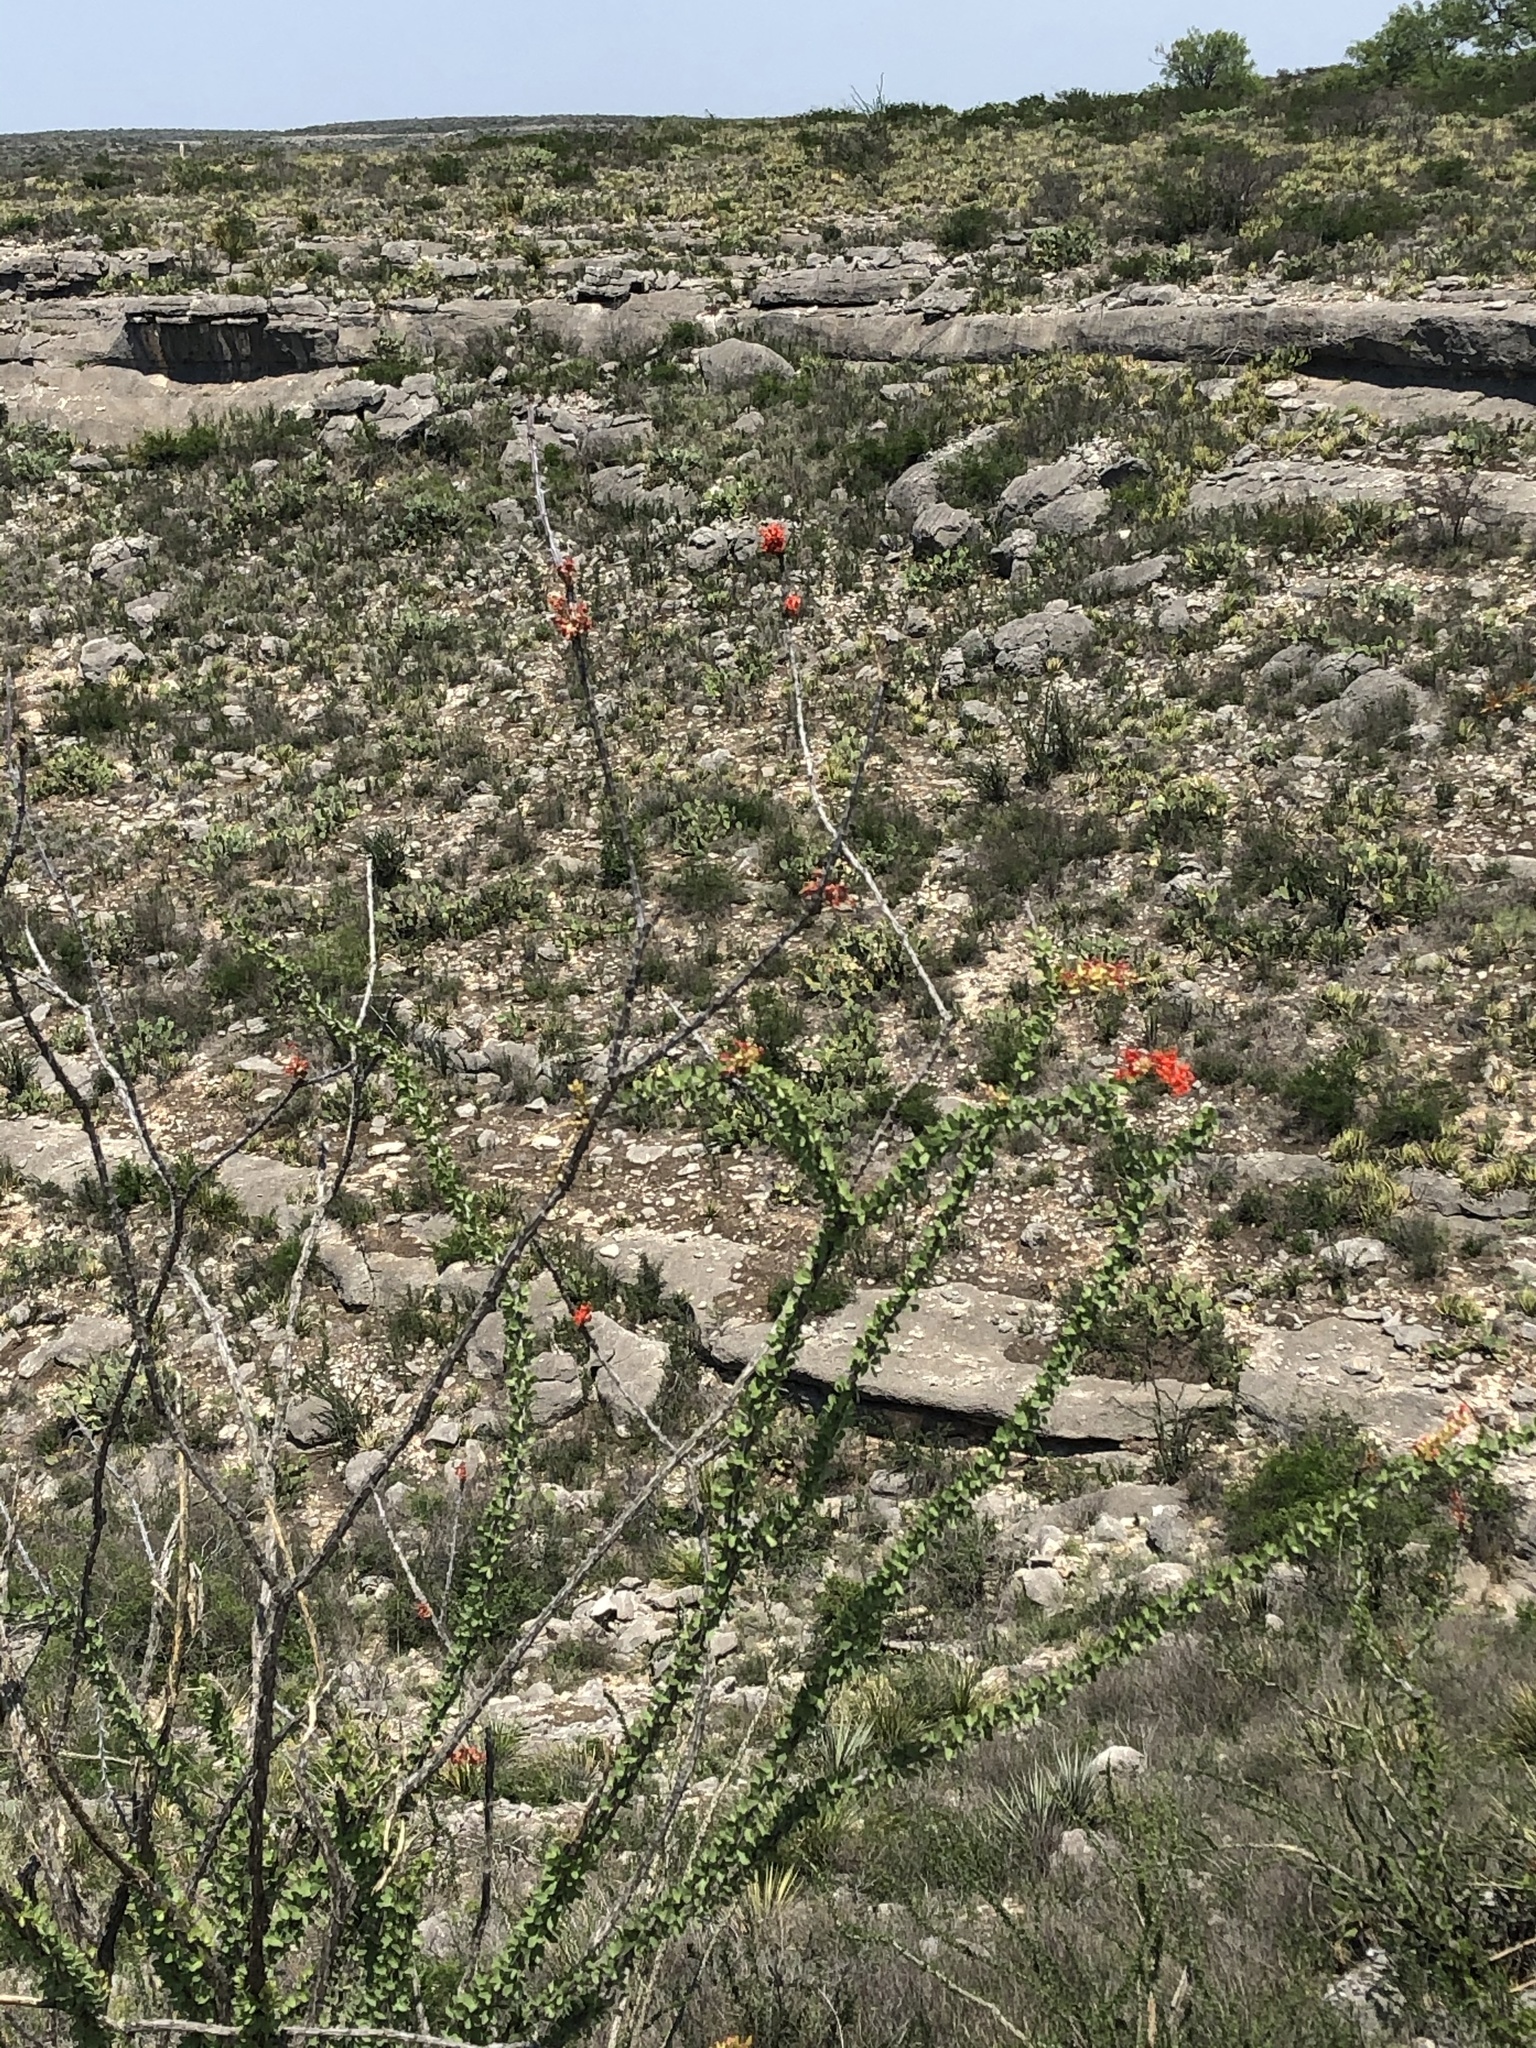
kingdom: Plantae
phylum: Tracheophyta
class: Magnoliopsida
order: Ericales
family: Fouquieriaceae
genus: Fouquieria
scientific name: Fouquieria splendens
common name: Vine-cactus
